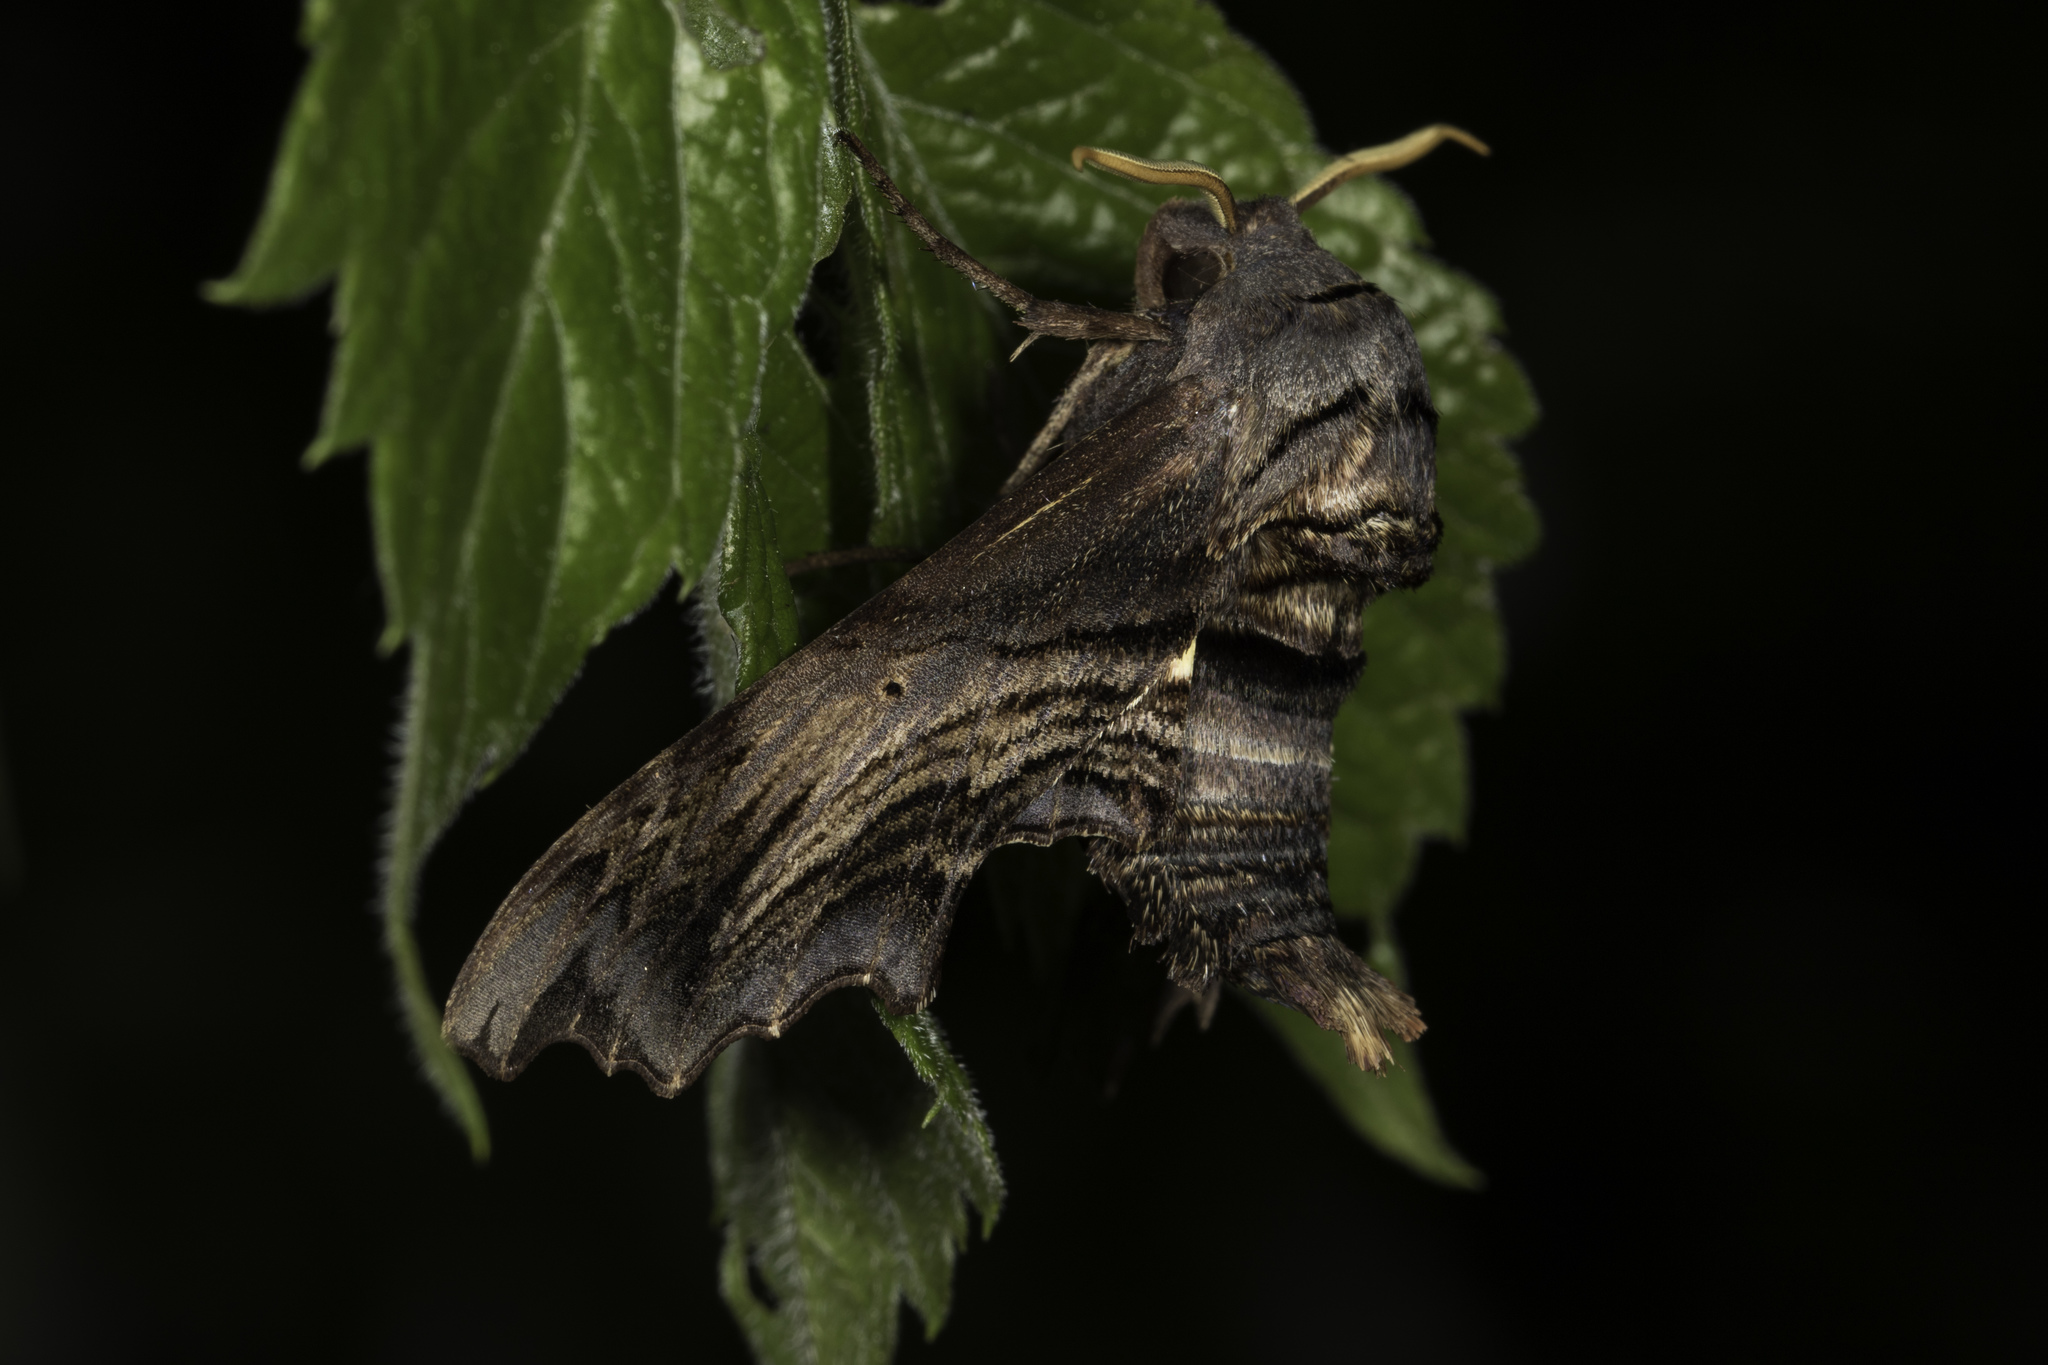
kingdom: Animalia
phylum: Arthropoda
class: Insecta
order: Lepidoptera
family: Sphingidae
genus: Sphecodina
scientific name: Sphecodina abbottii
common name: Abbott's sphinx
